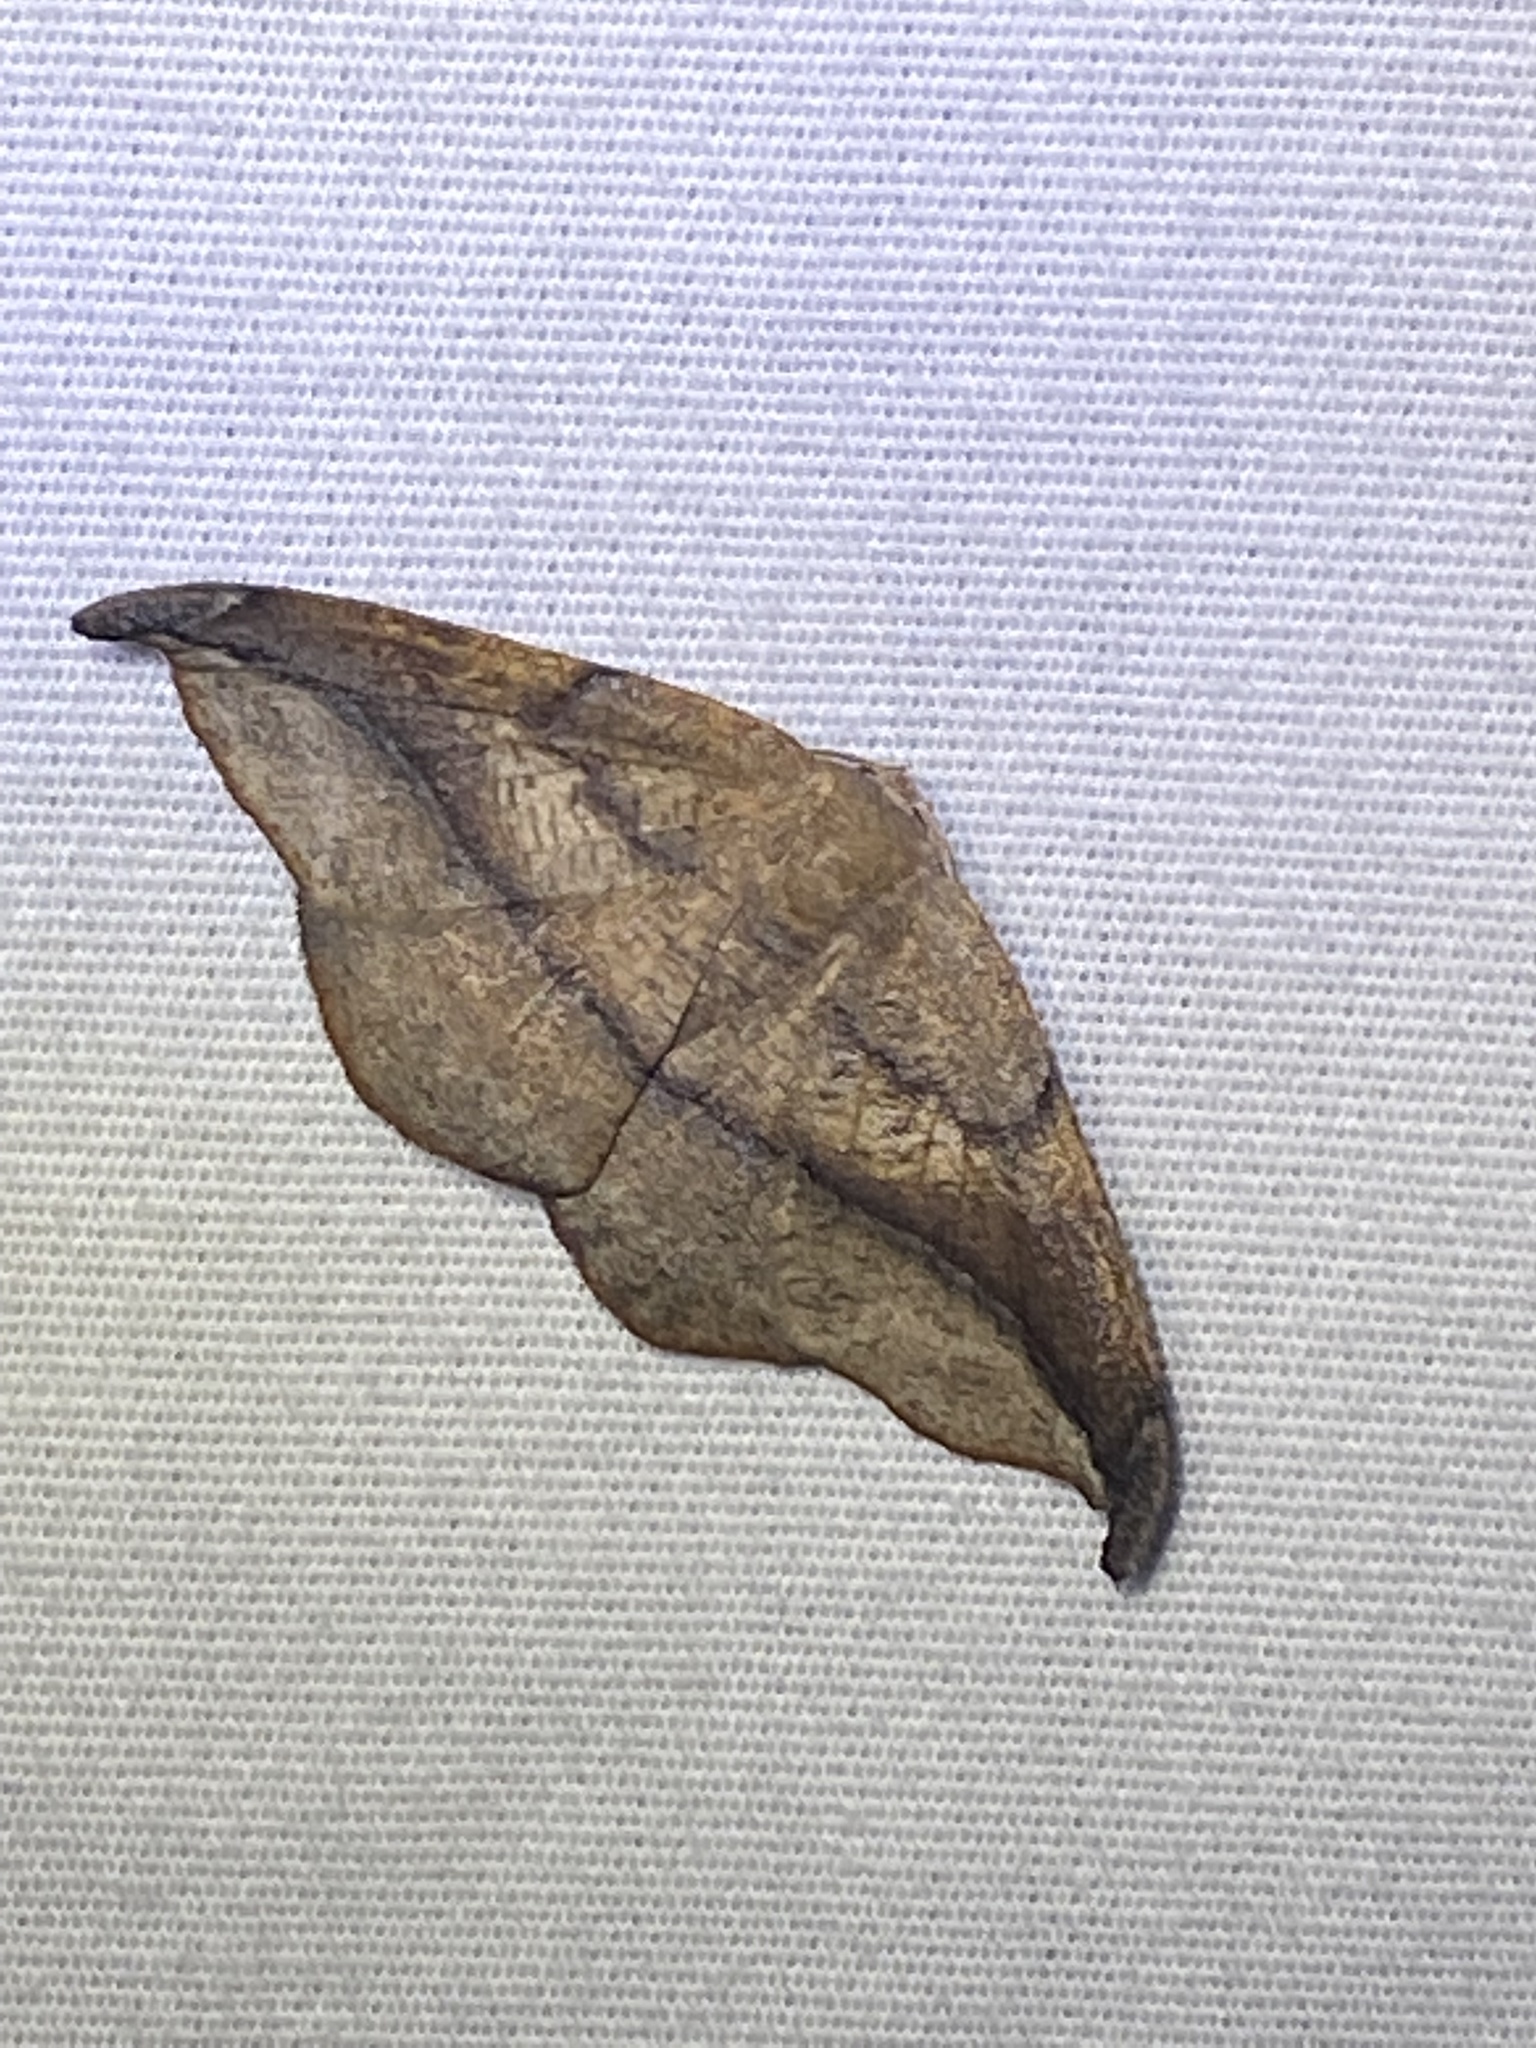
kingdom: Animalia
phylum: Arthropoda
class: Insecta
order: Lepidoptera
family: Geometridae
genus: Patalene
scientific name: Patalene olyzonaria
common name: Juniper geometer moth
